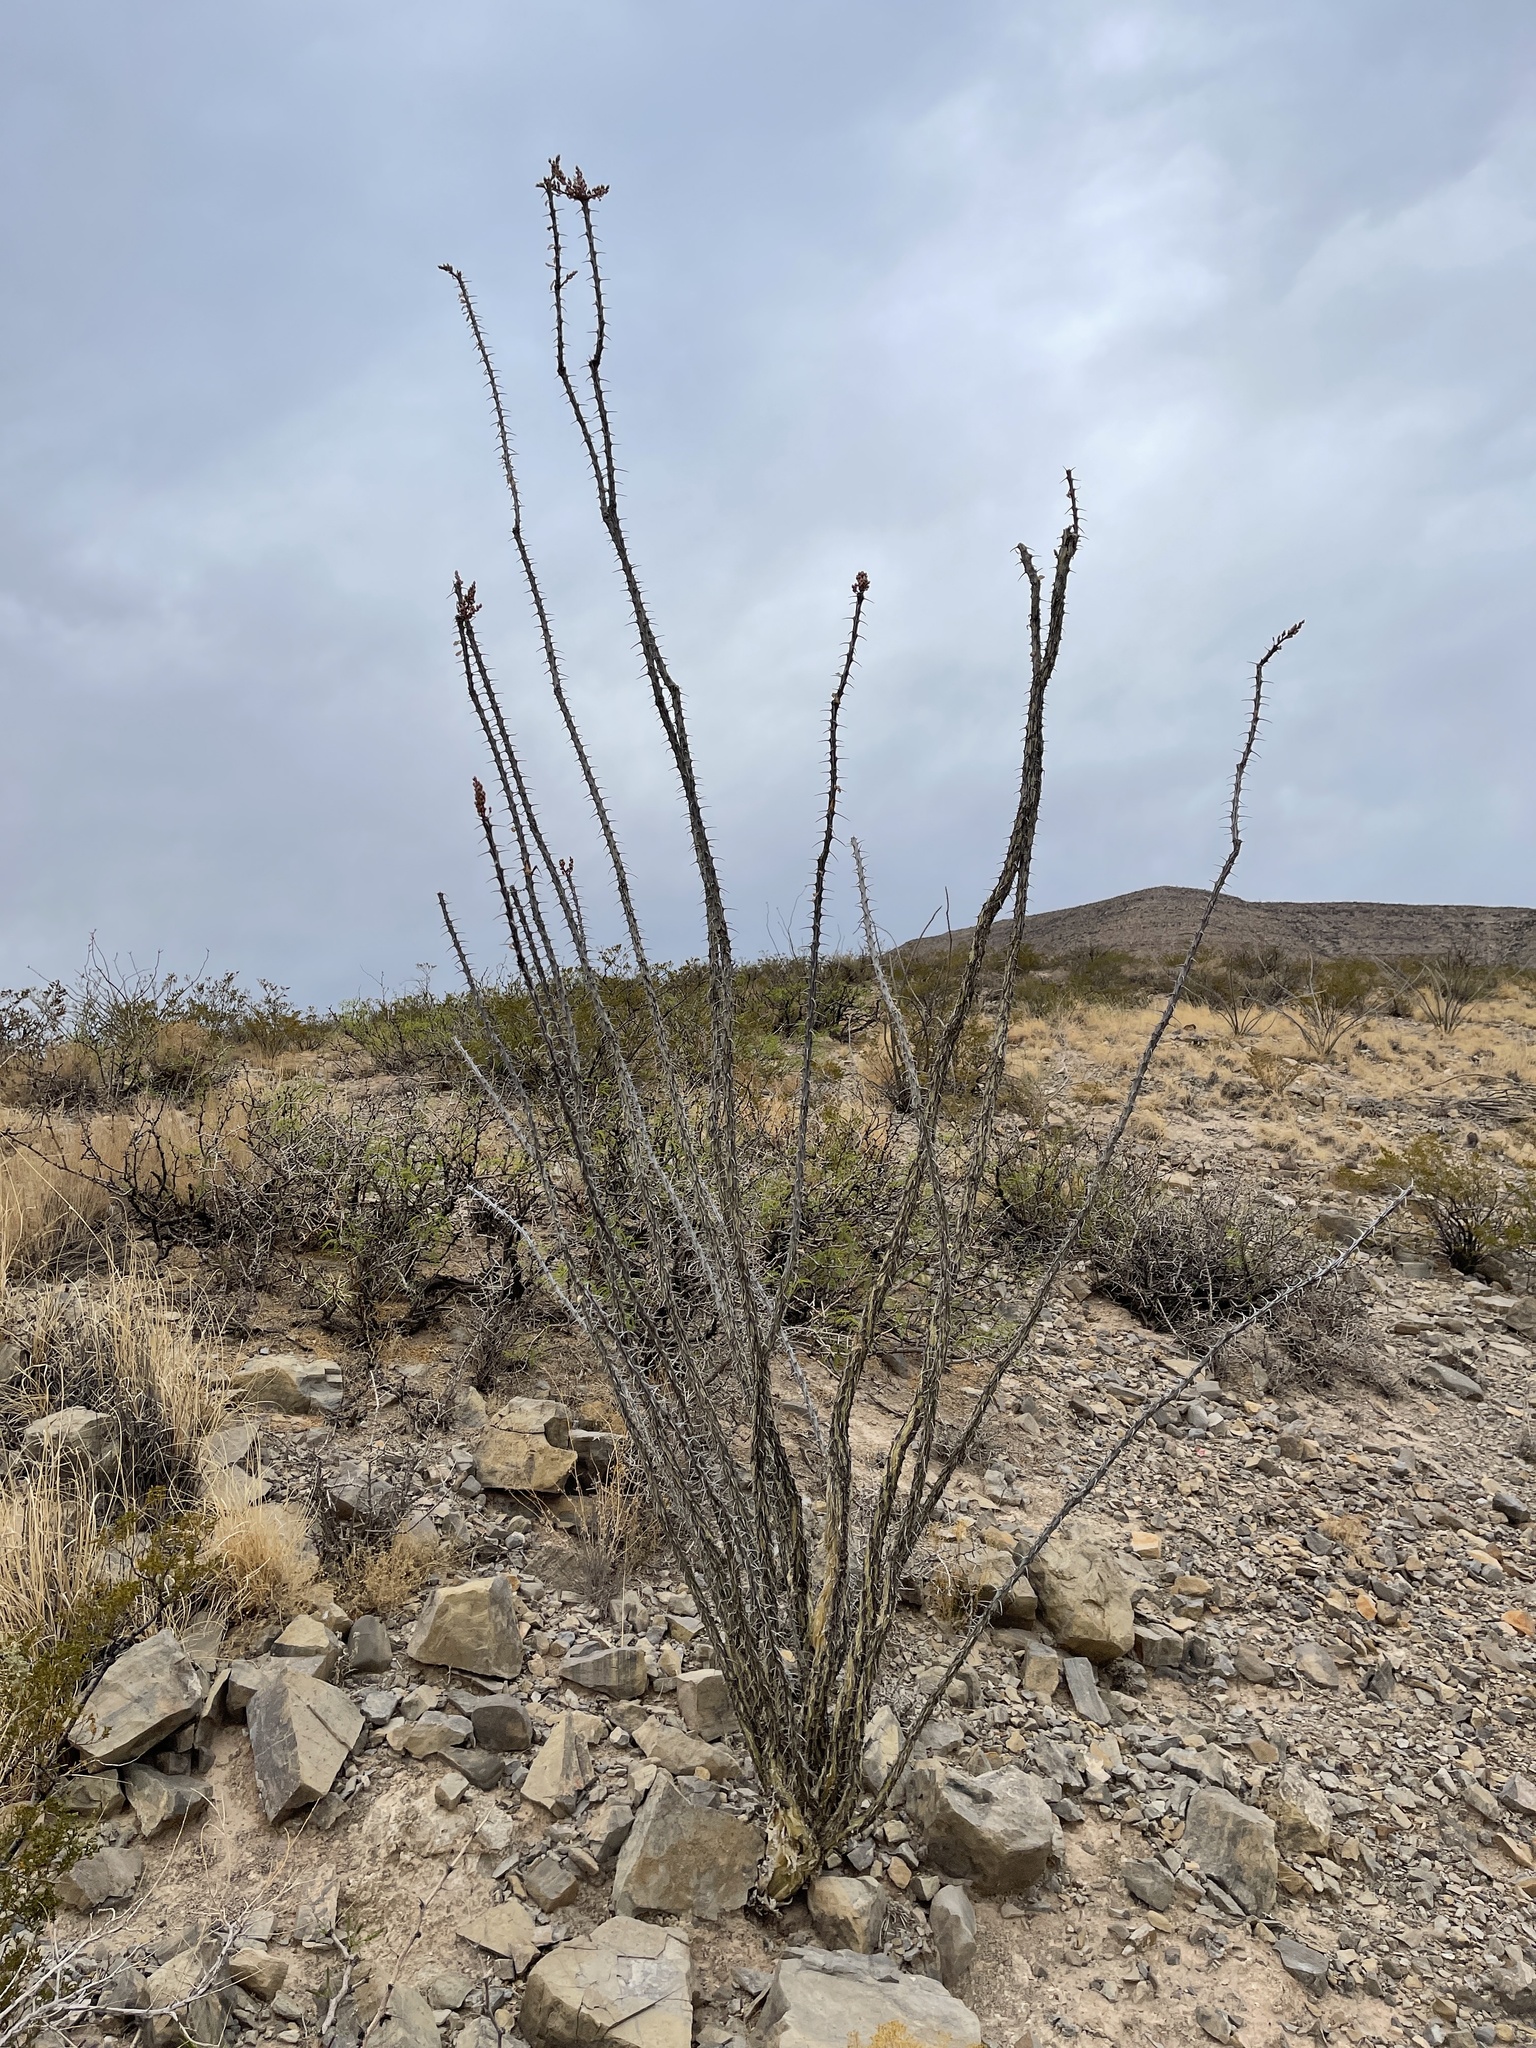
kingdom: Plantae
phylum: Tracheophyta
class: Magnoliopsida
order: Ericales
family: Fouquieriaceae
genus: Fouquieria
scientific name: Fouquieria splendens
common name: Vine-cactus
